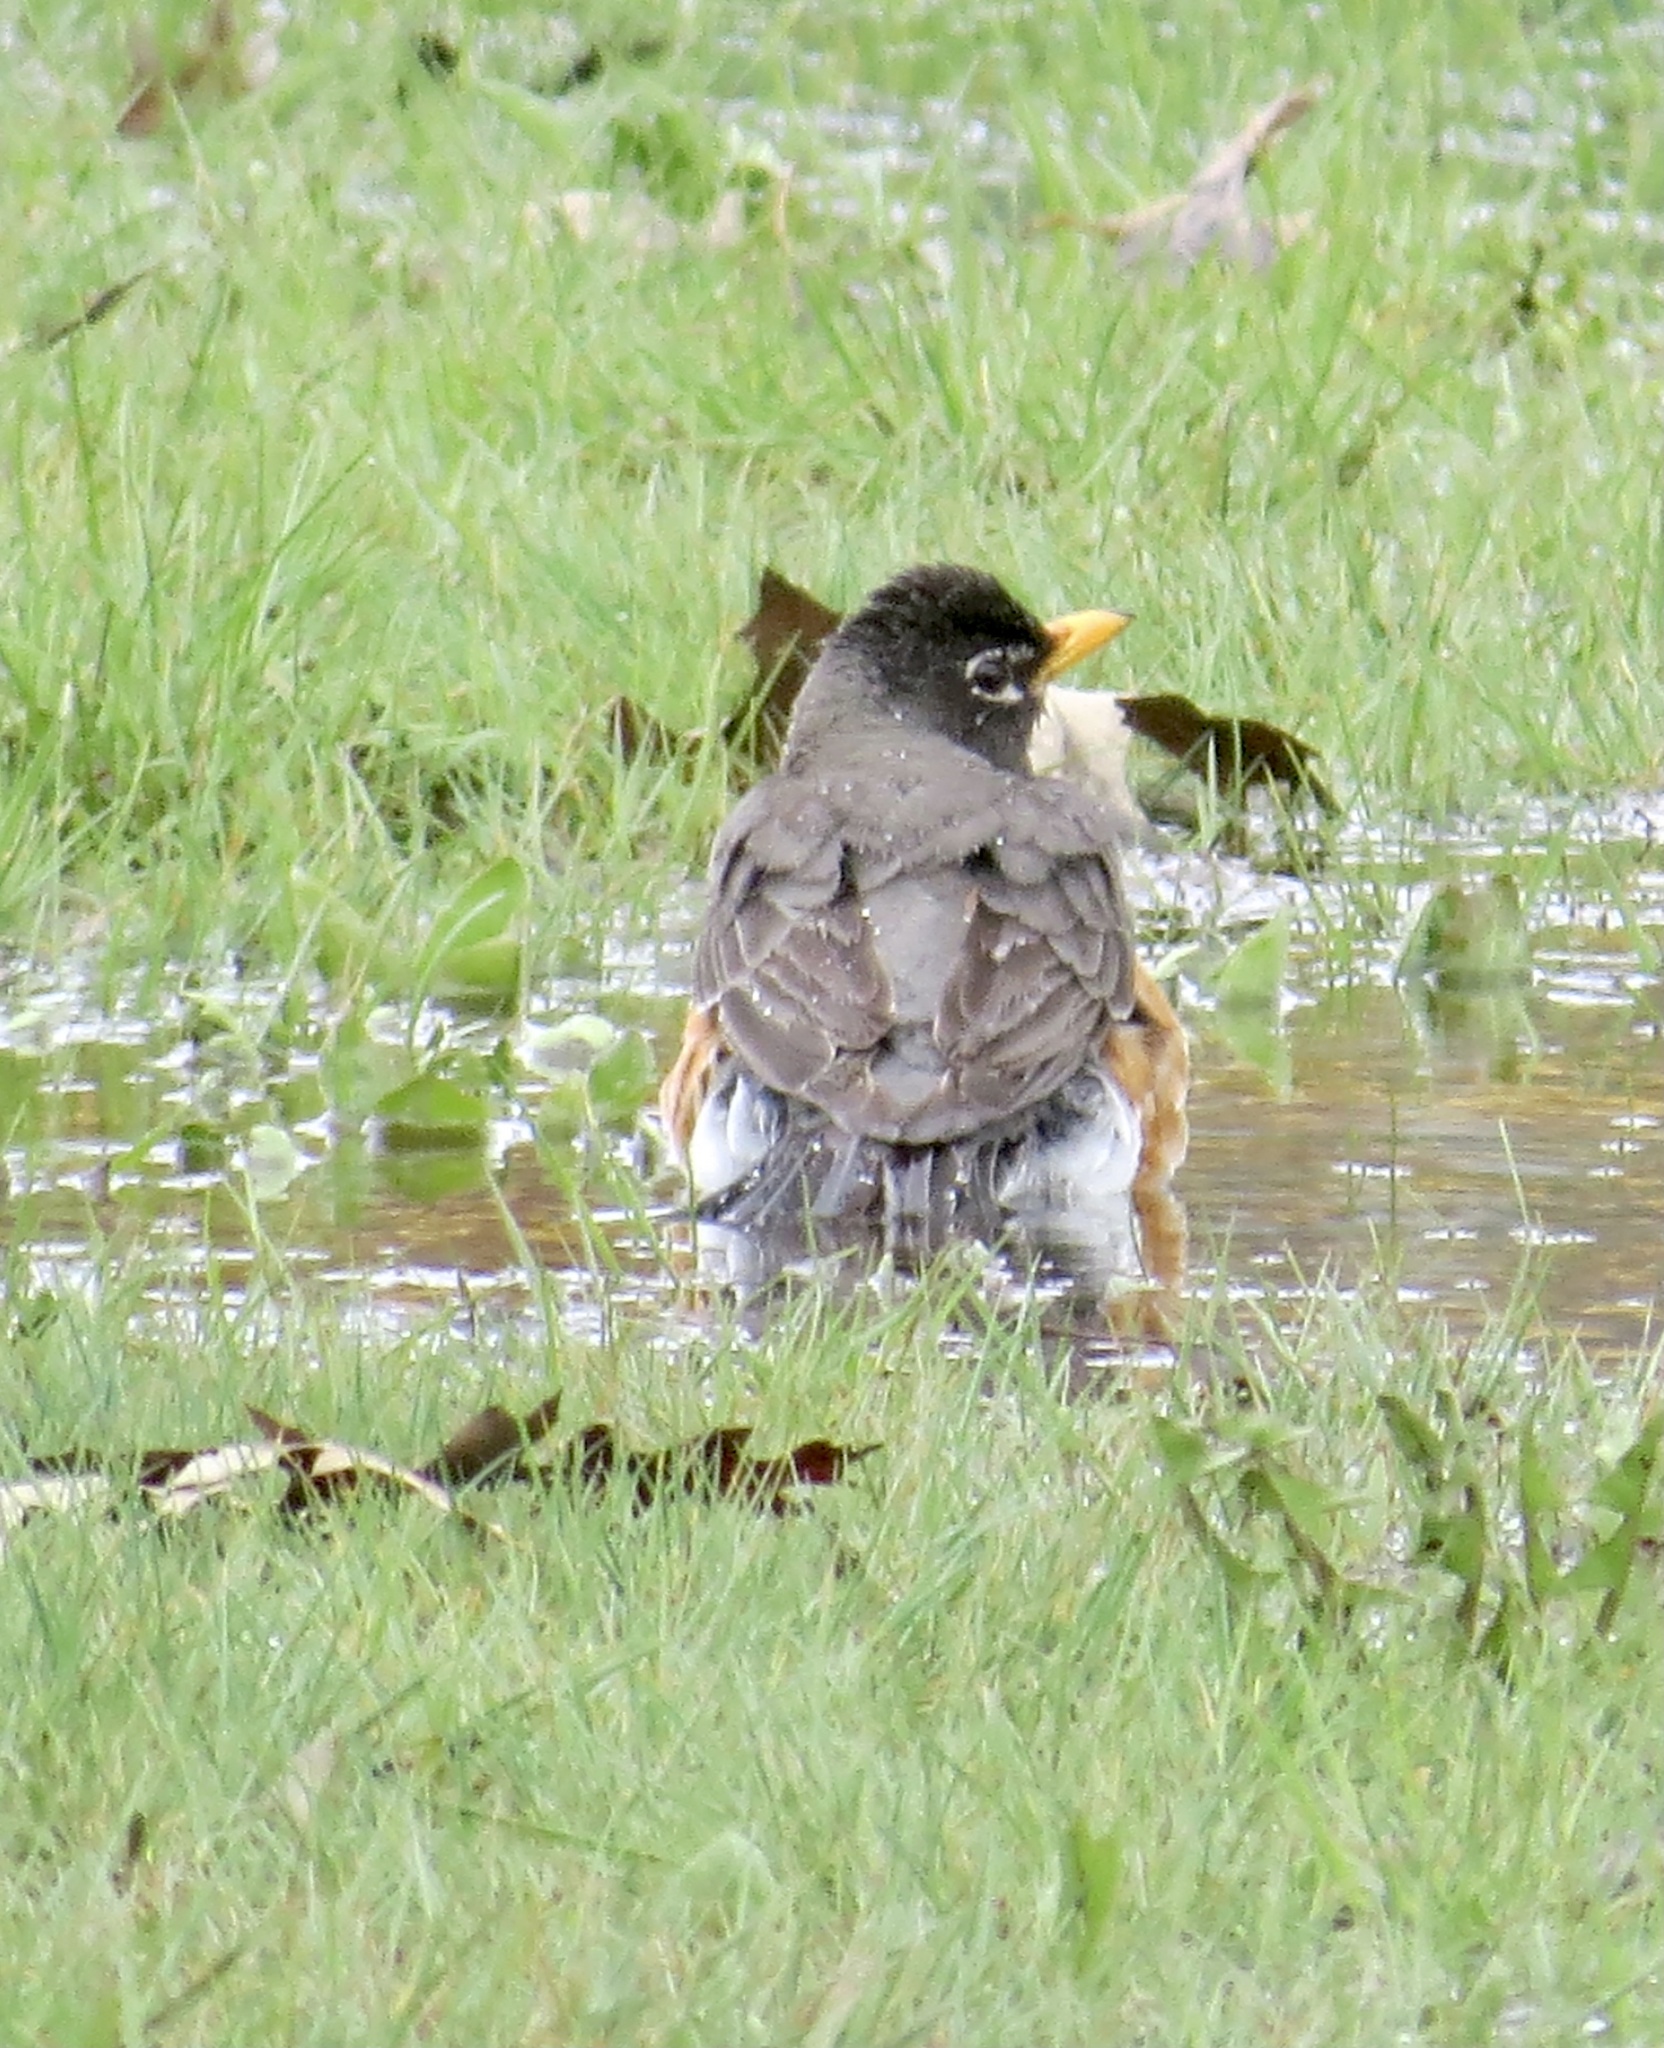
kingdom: Animalia
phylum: Chordata
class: Aves
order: Passeriformes
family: Turdidae
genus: Turdus
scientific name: Turdus migratorius
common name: American robin
